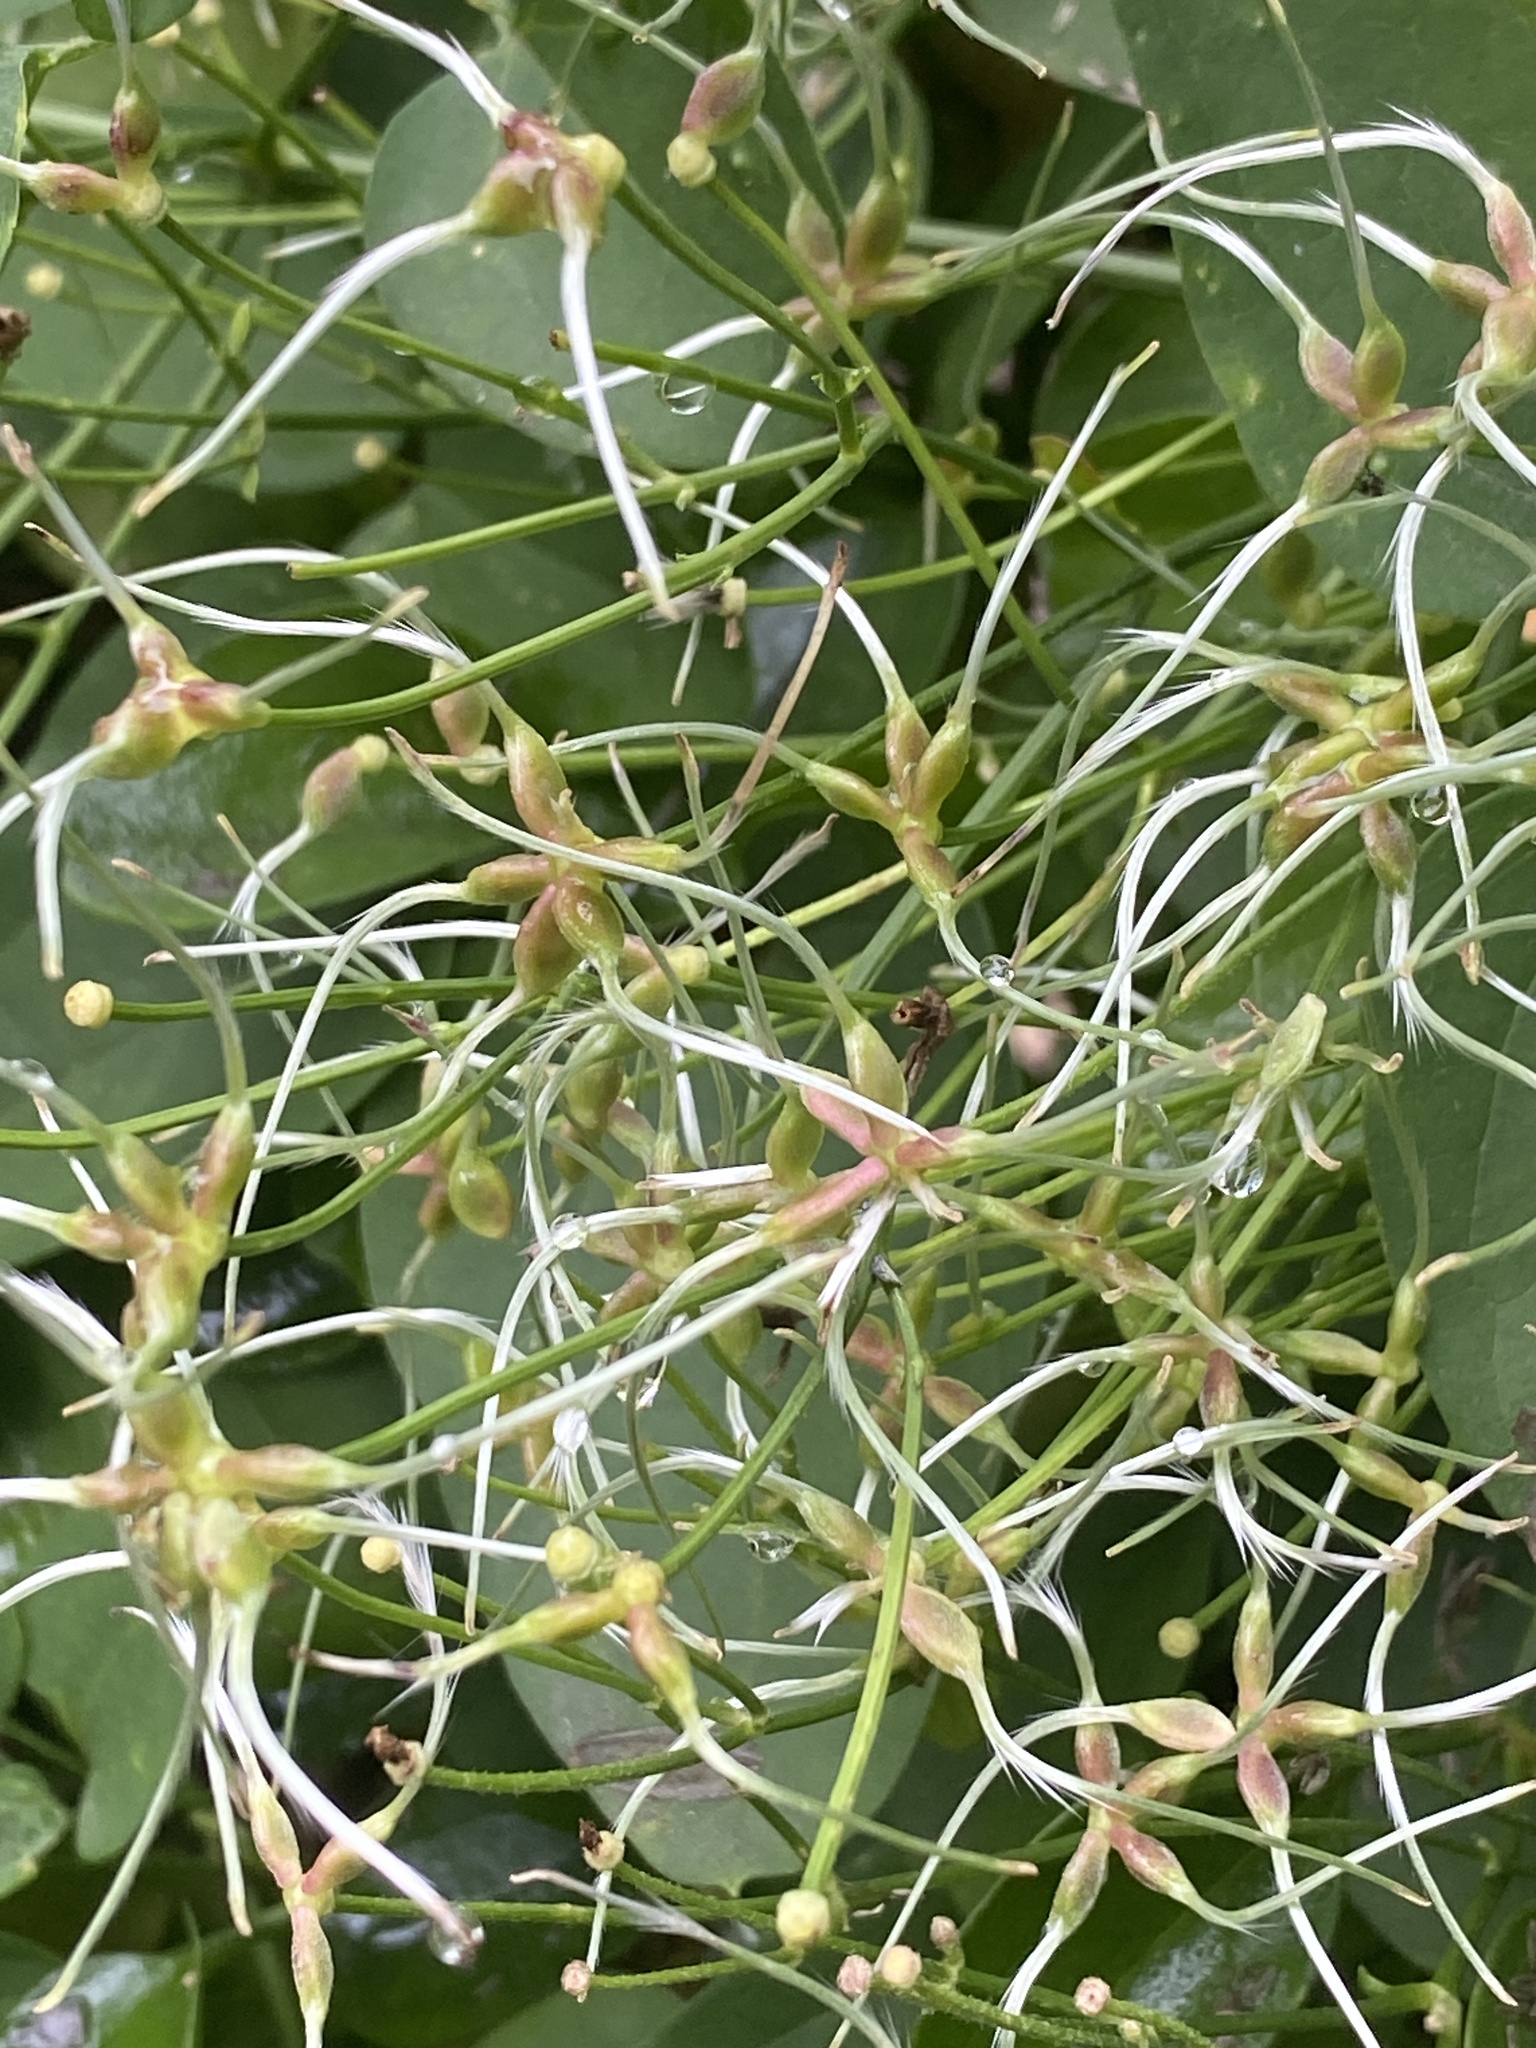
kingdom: Plantae
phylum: Tracheophyta
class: Magnoliopsida
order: Ranunculales
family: Ranunculaceae
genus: Clematis
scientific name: Clematis terniflora
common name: Sweet autumn clematis
